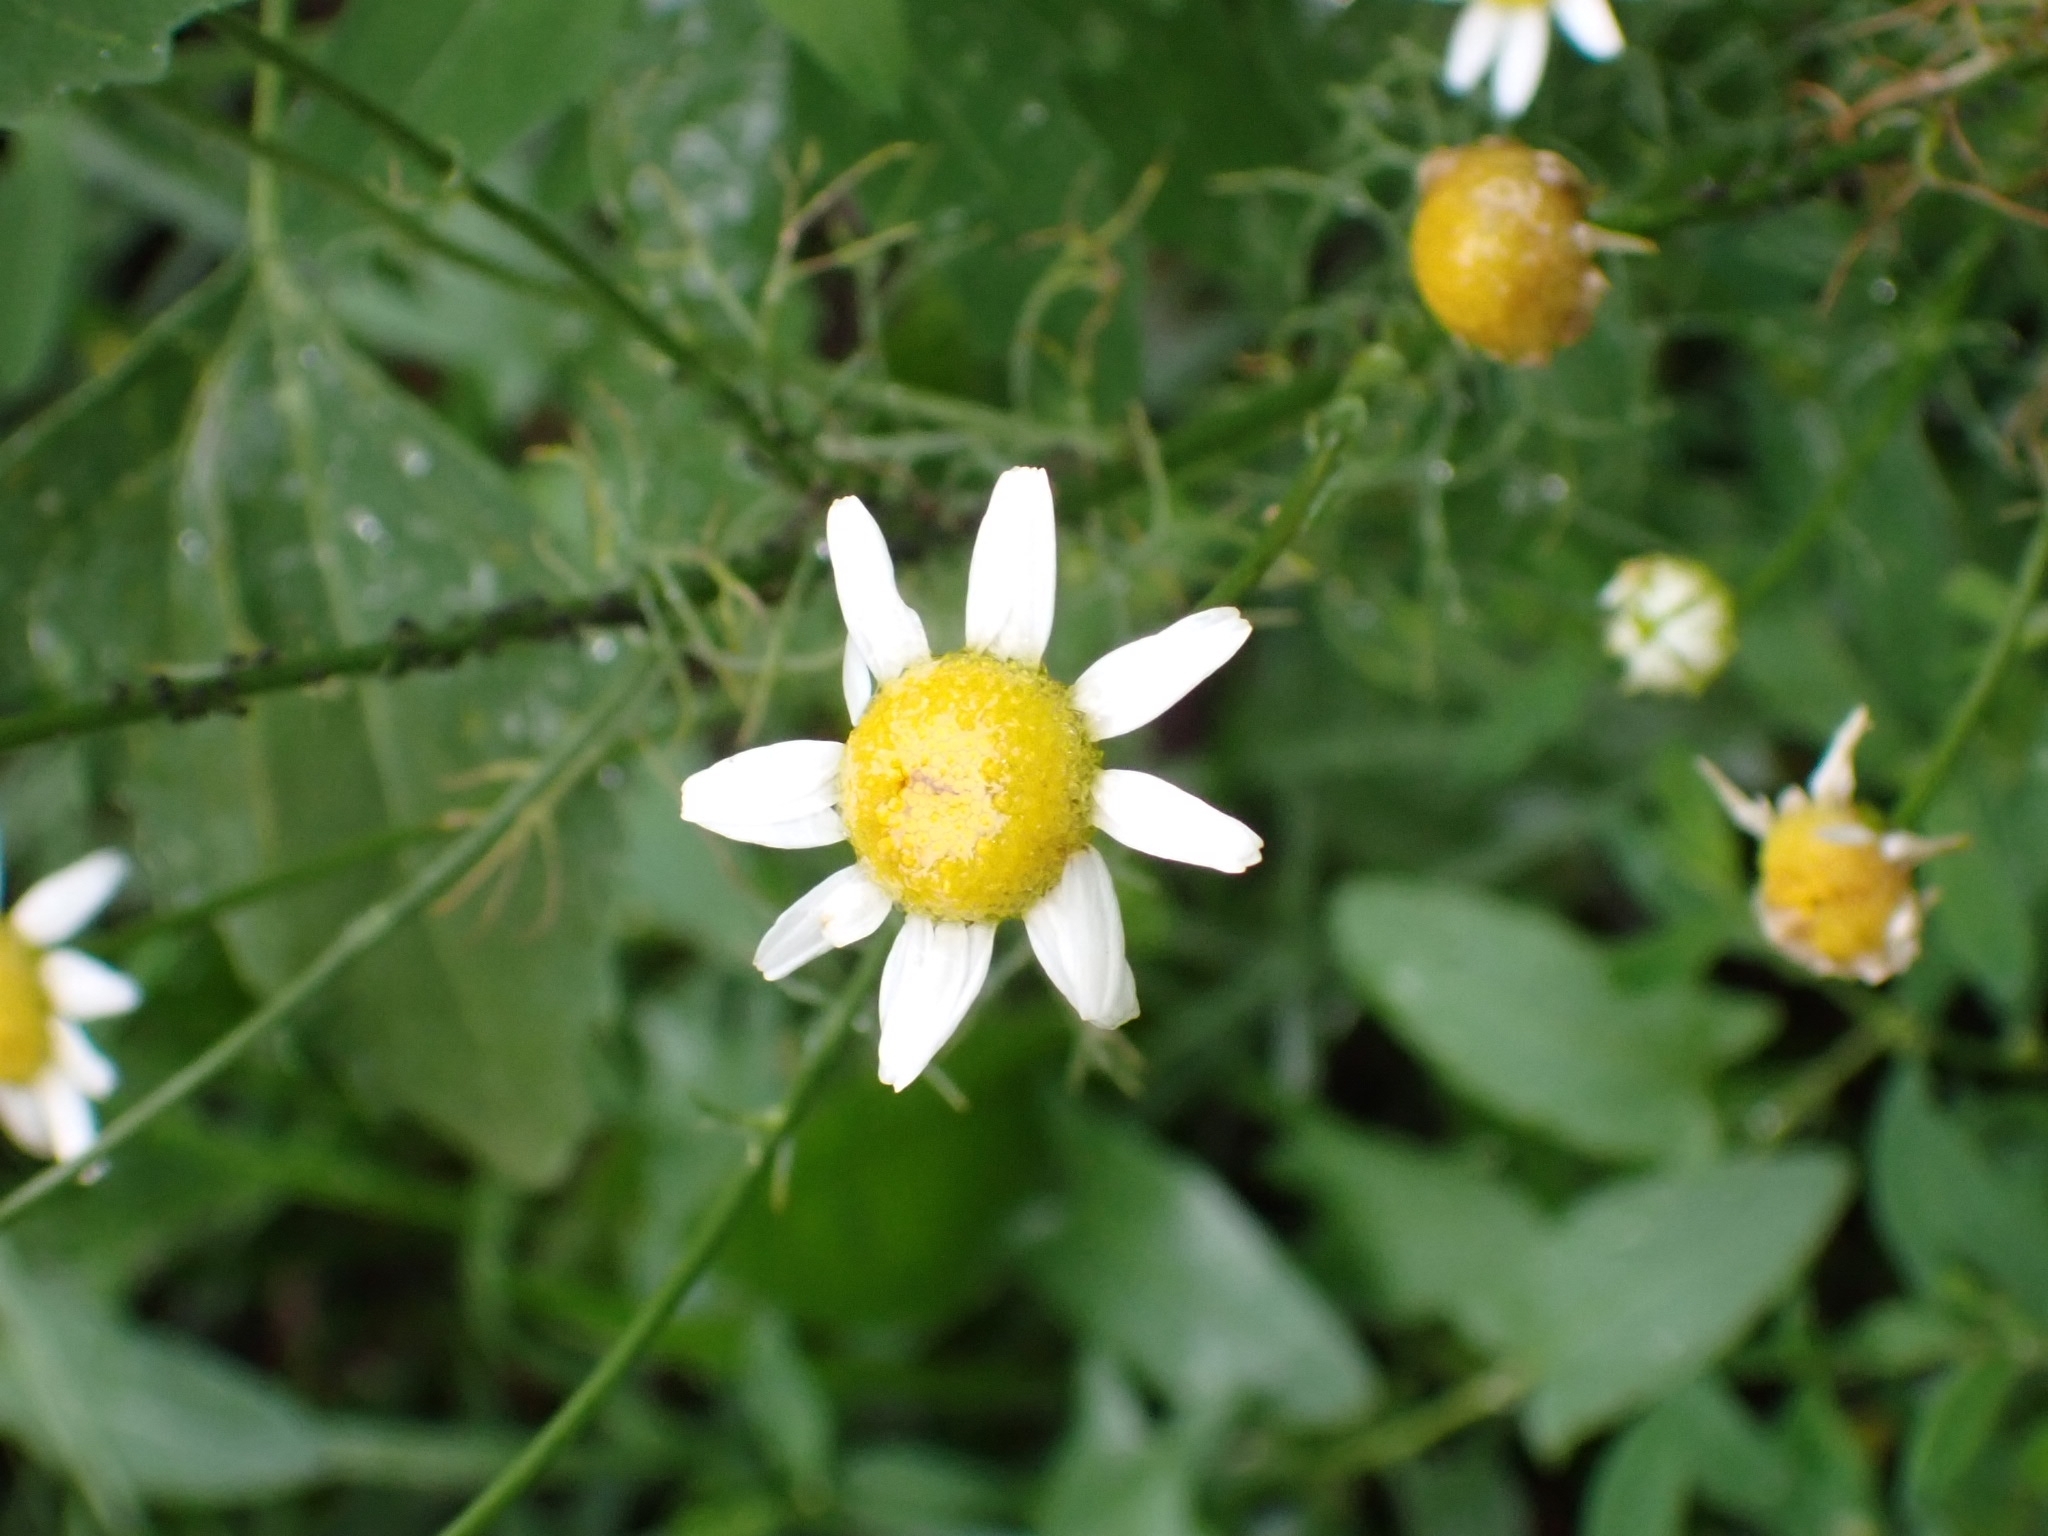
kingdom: Plantae
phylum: Tracheophyta
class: Magnoliopsida
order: Asterales
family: Asteraceae
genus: Tripleurospermum
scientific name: Tripleurospermum inodorum
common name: Scentless mayweed
